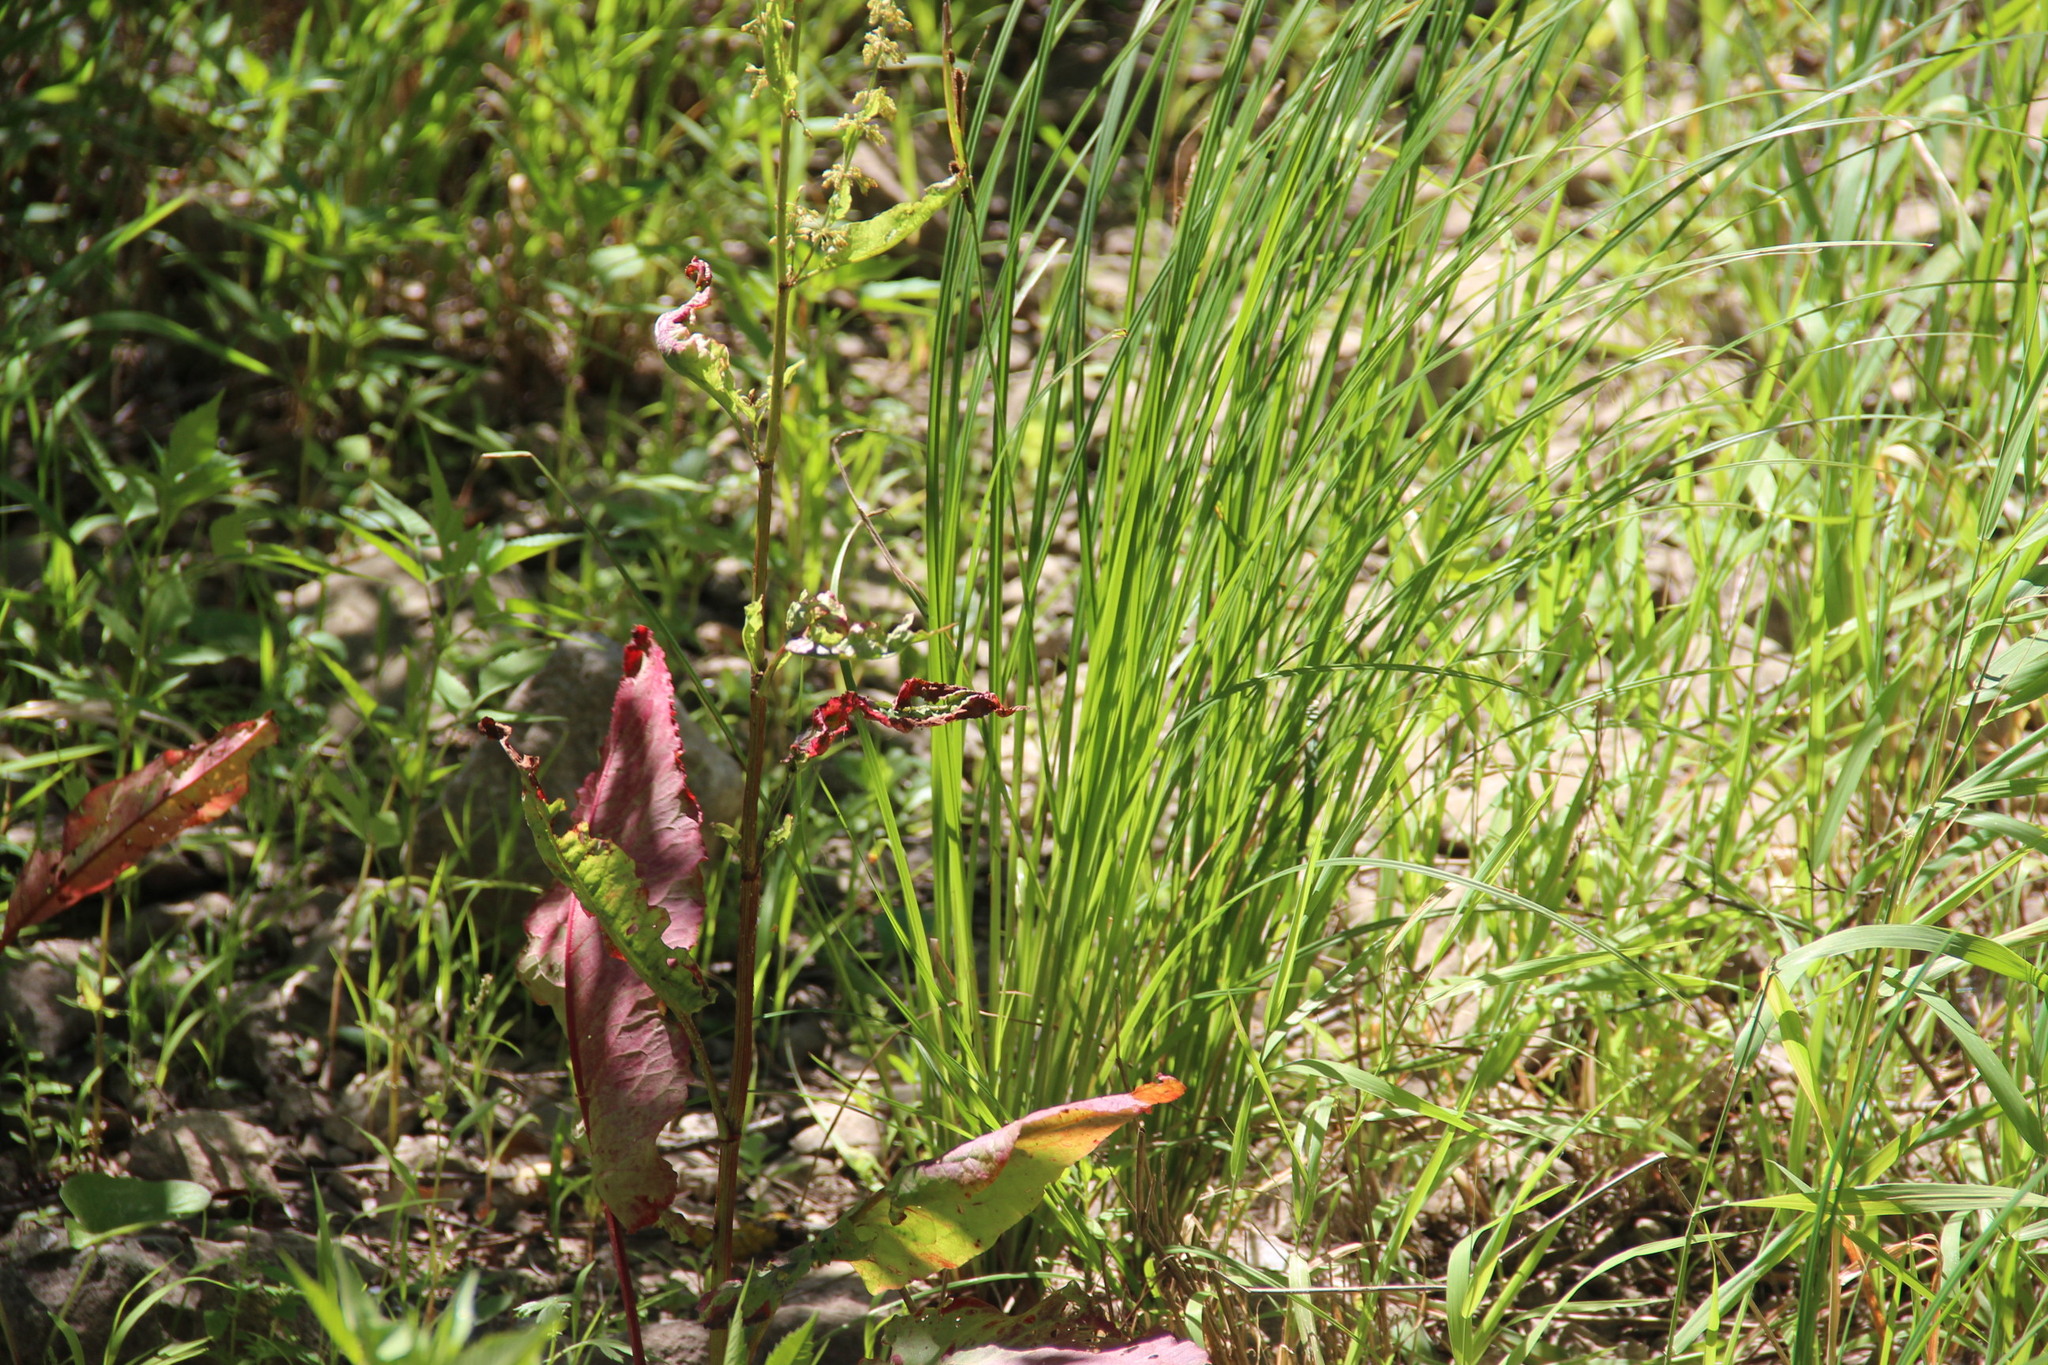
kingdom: Plantae
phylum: Tracheophyta
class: Magnoliopsida
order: Caryophyllales
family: Polygonaceae
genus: Rumex
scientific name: Rumex aquaticus
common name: Scottish dock
